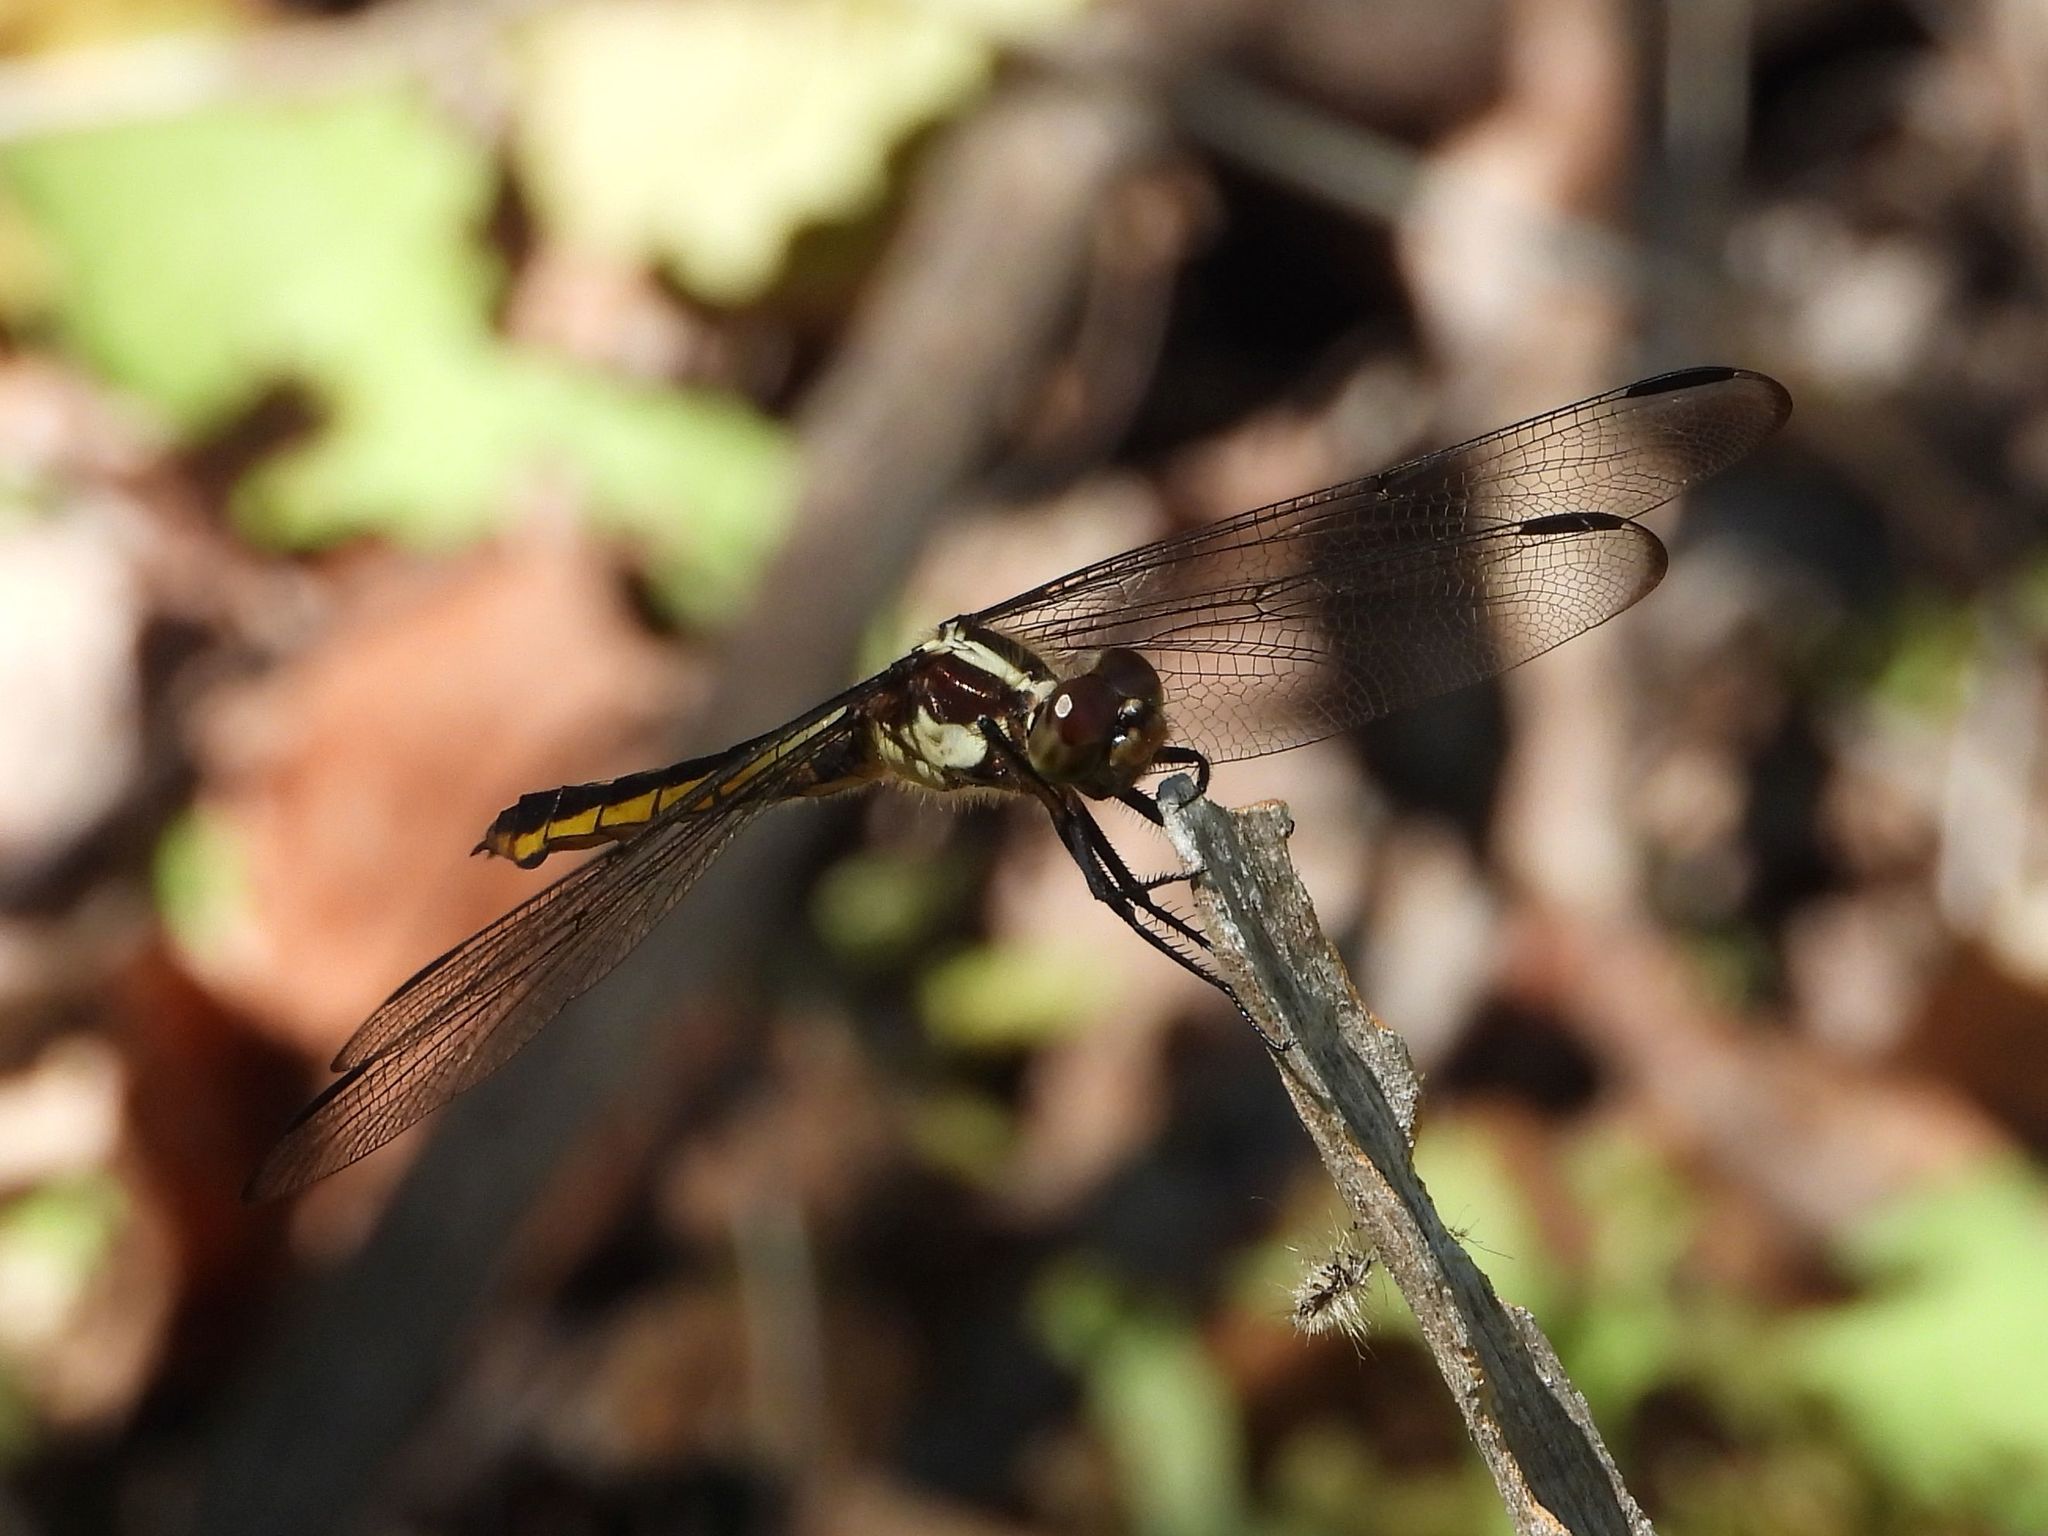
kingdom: Animalia
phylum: Arthropoda
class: Insecta
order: Odonata
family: Libellulidae
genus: Libellula
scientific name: Libellula incesta
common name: Slaty skimmer
